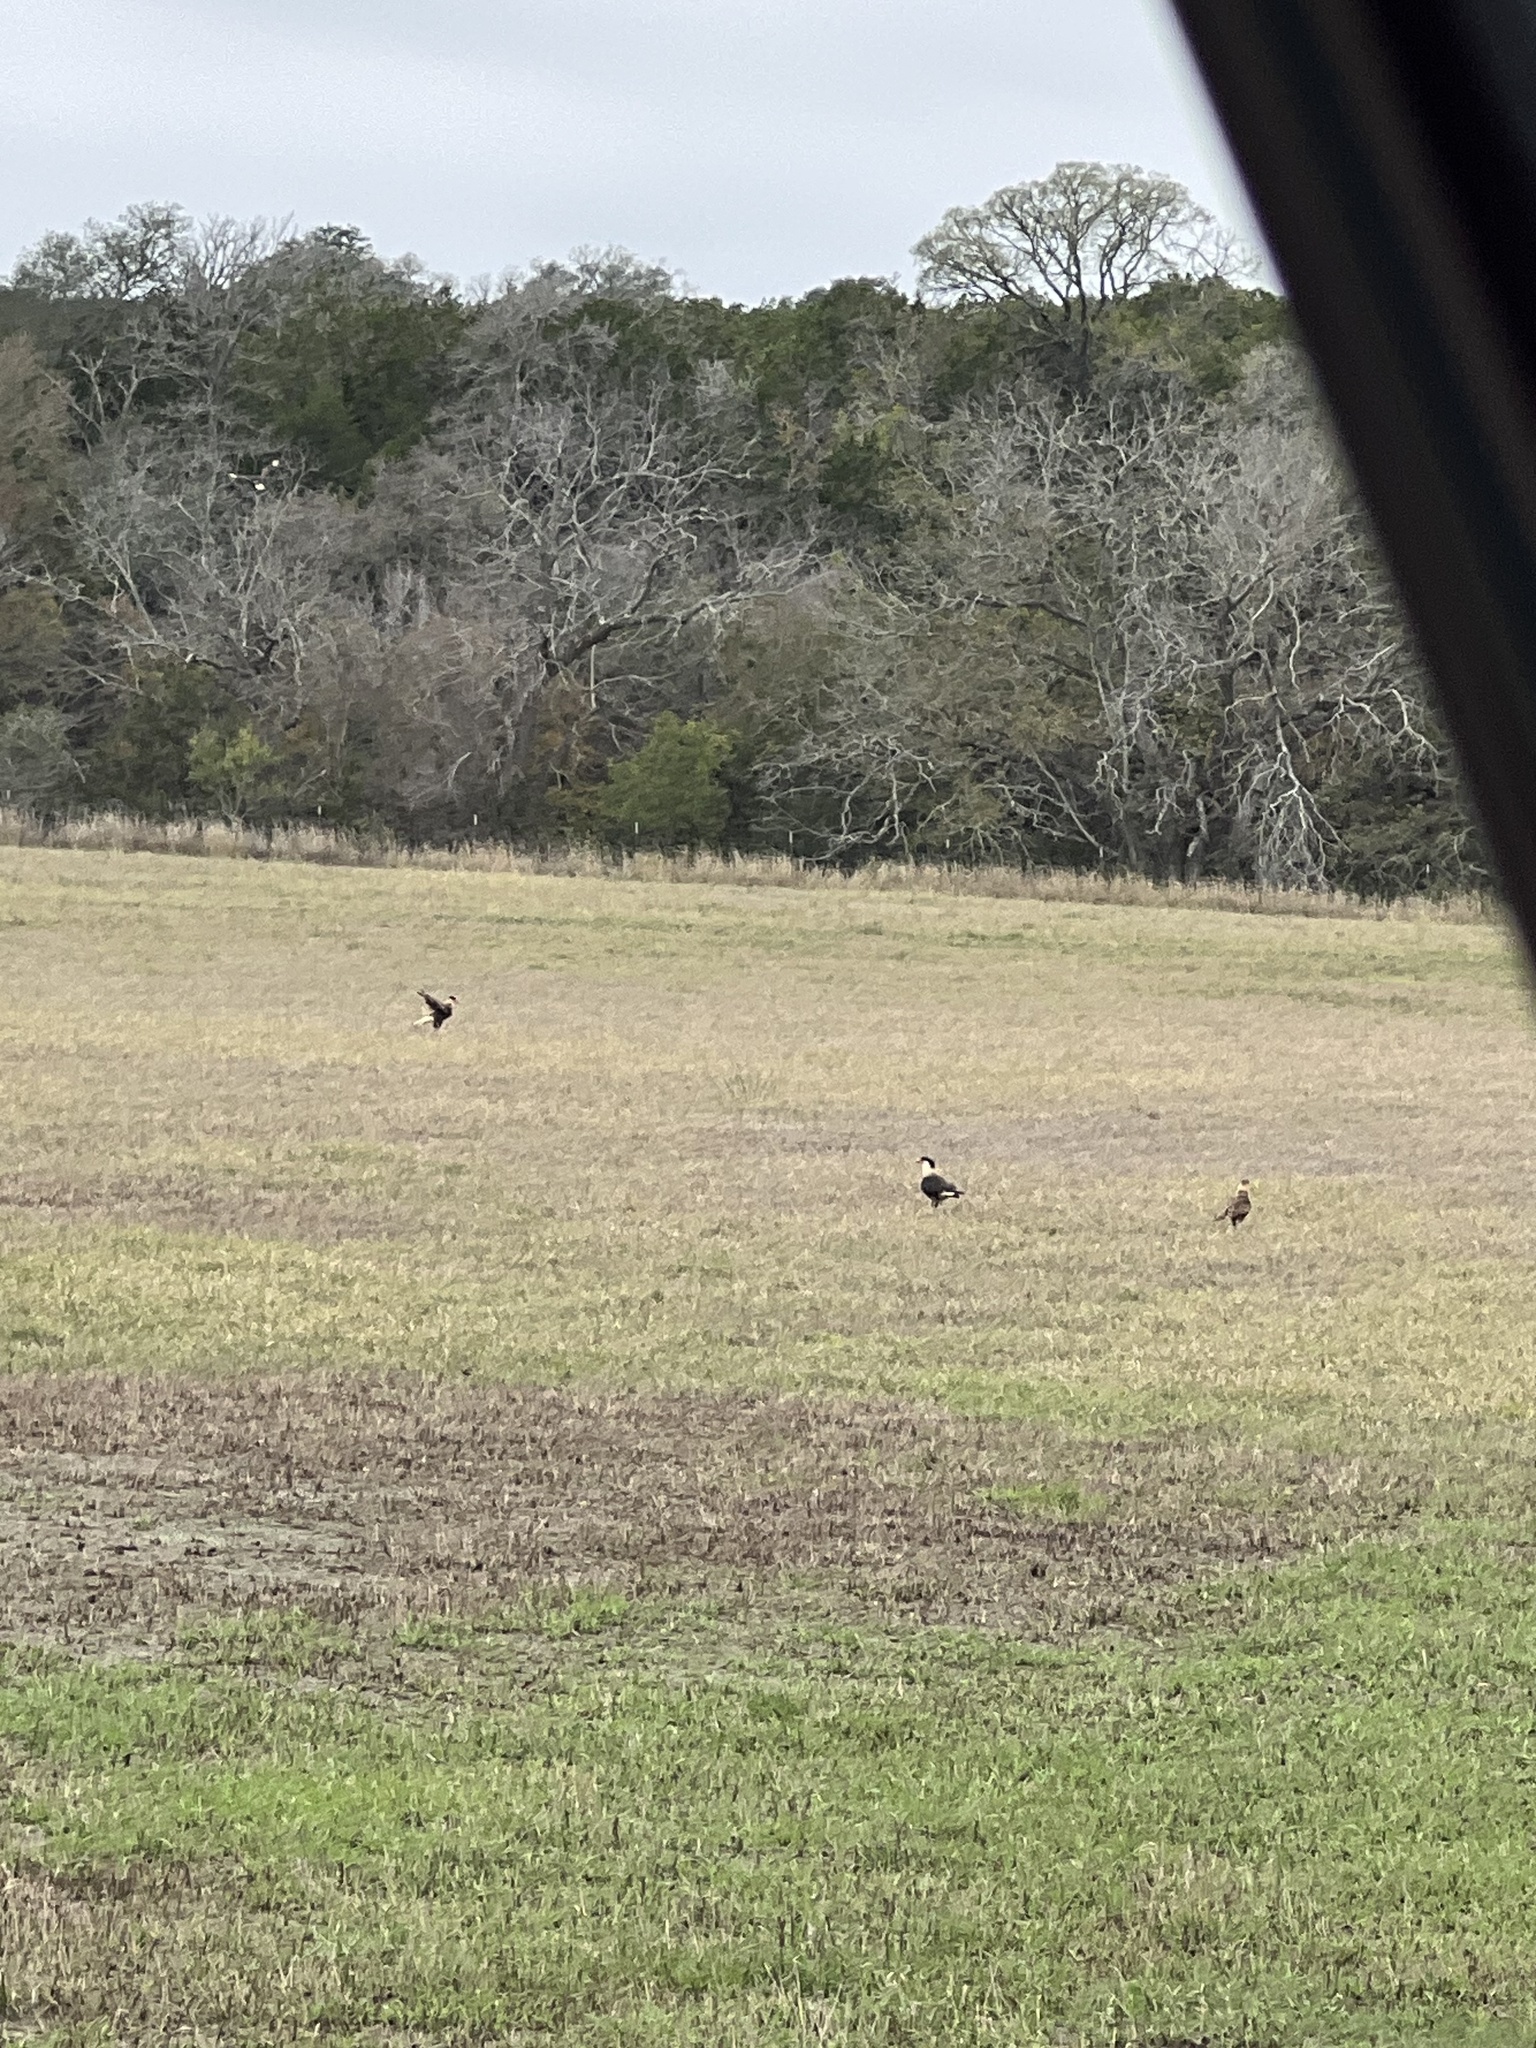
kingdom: Animalia
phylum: Chordata
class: Aves
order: Falconiformes
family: Falconidae
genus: Caracara
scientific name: Caracara plancus
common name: Southern caracara
